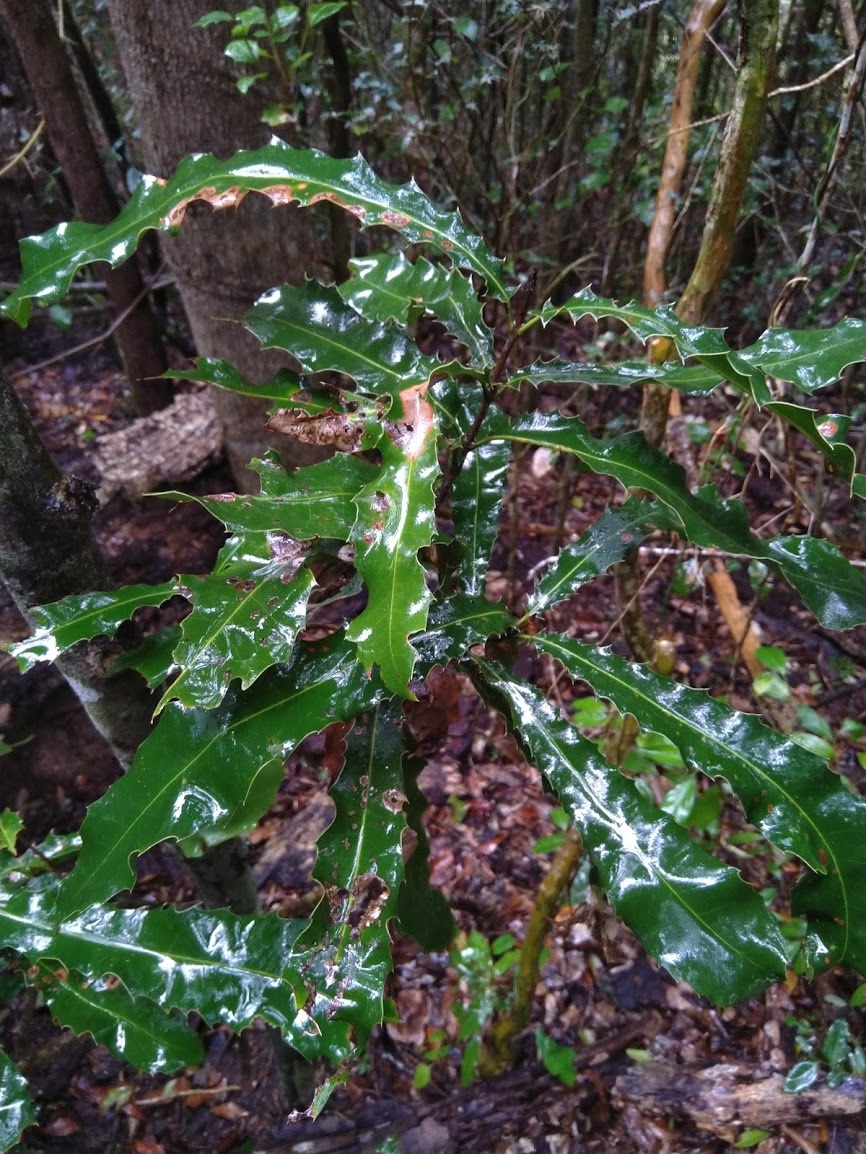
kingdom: Plantae
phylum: Tracheophyta
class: Magnoliopsida
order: Proteales
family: Proteaceae
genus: Macadamia
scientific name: Macadamia integrifolia
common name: Macadamia
